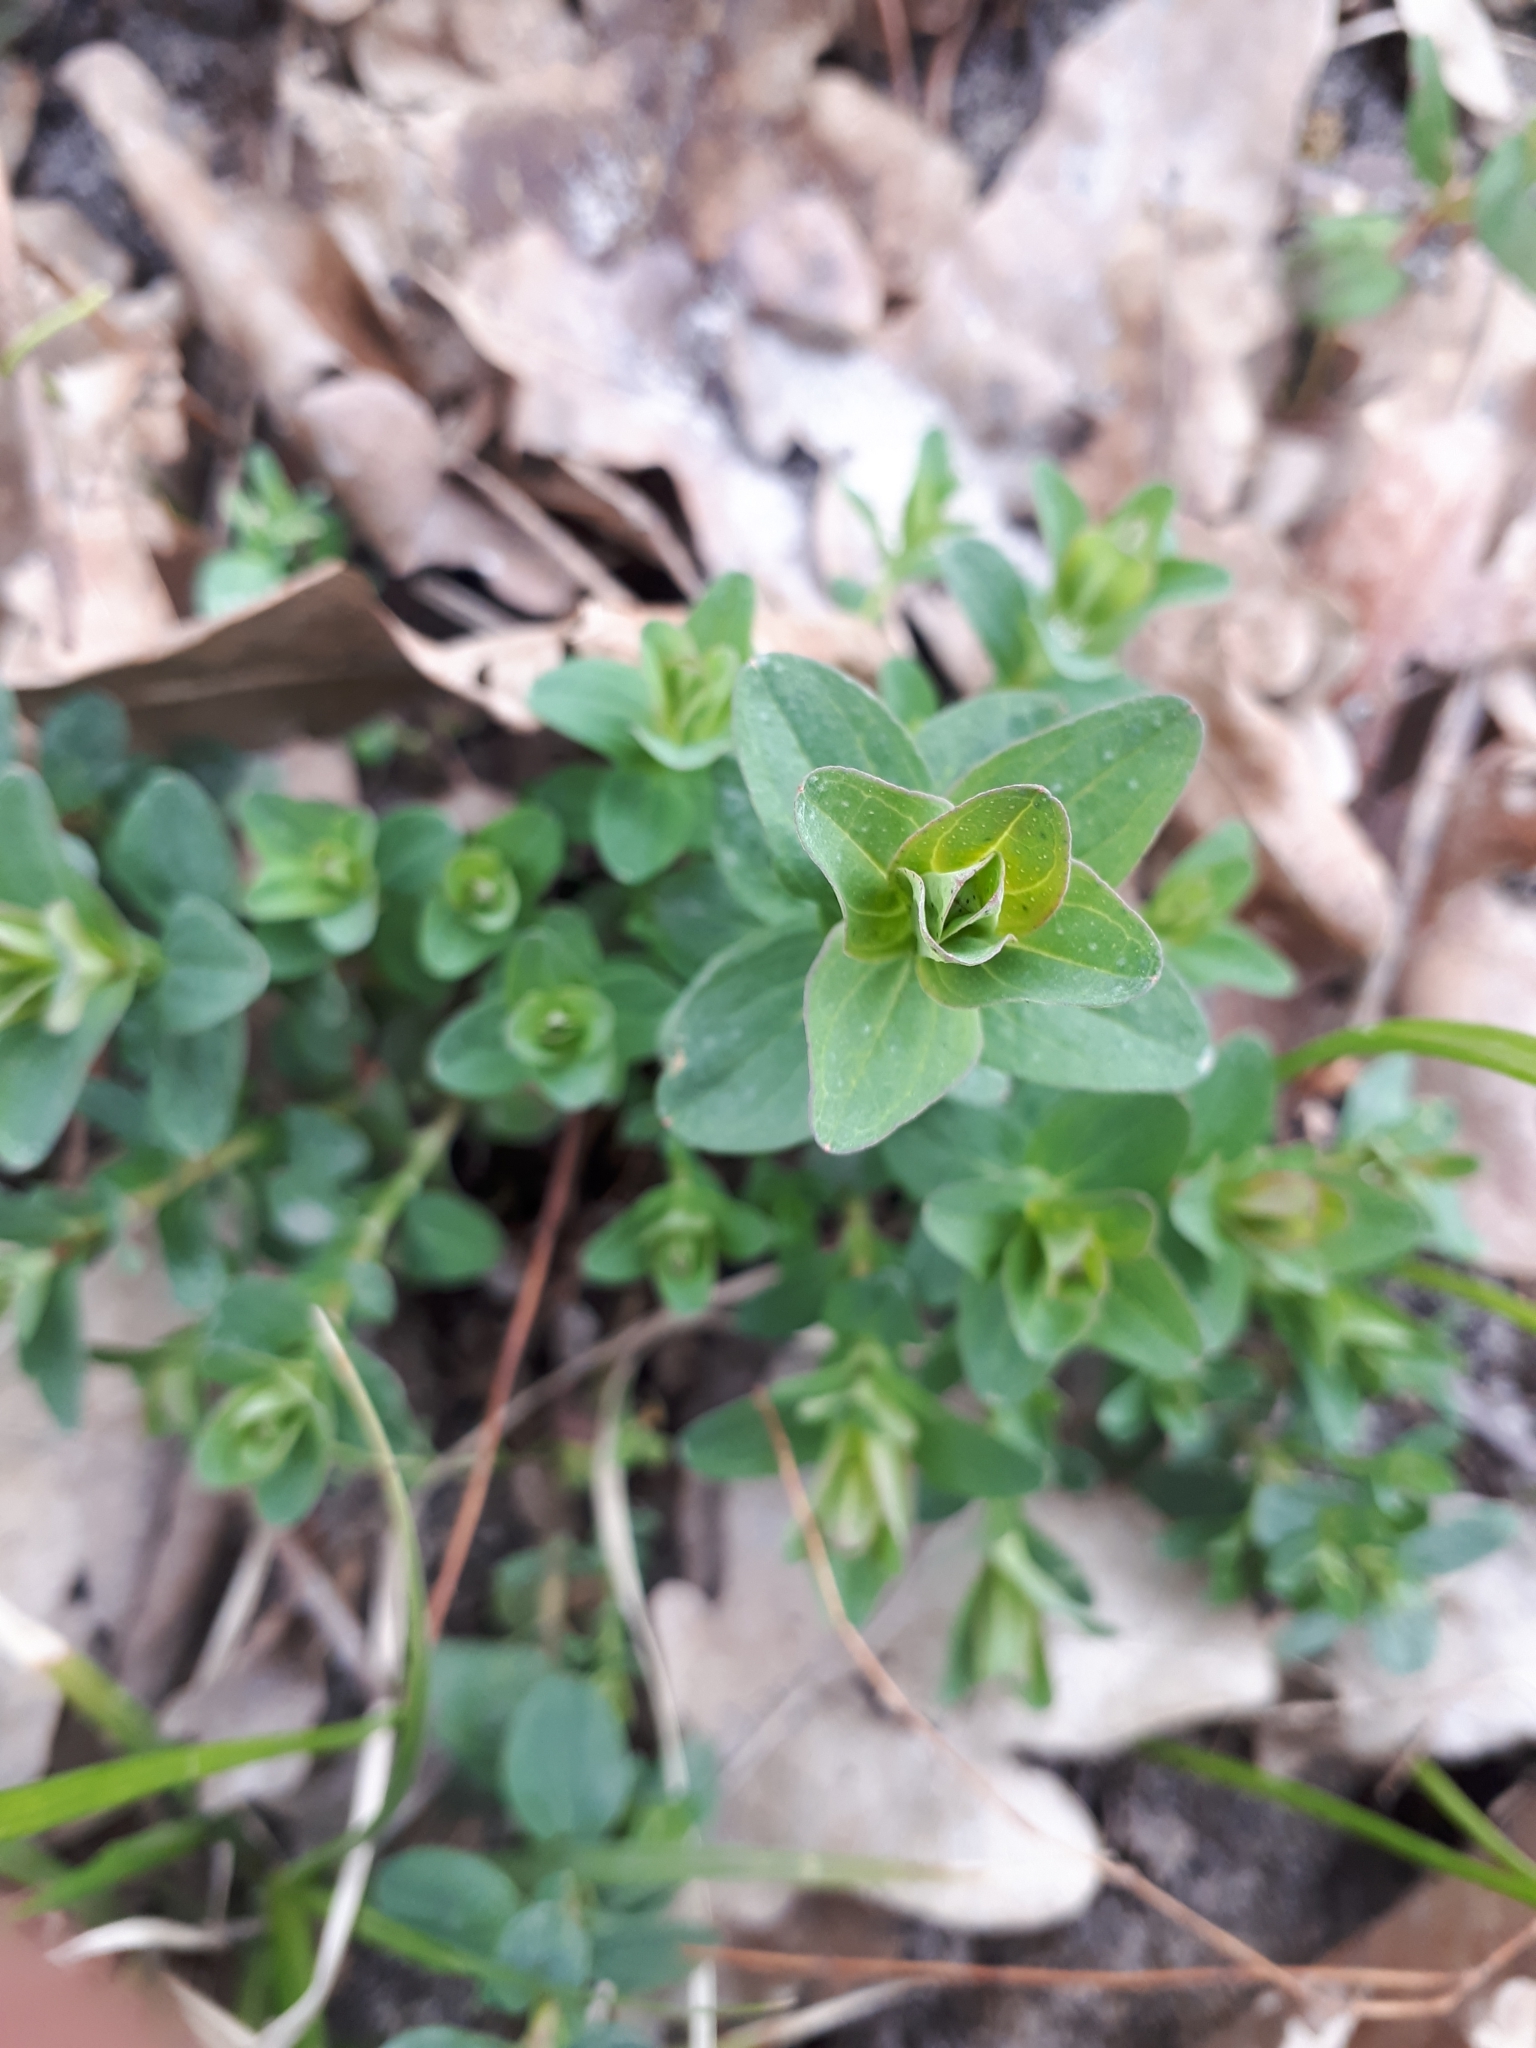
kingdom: Plantae
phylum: Tracheophyta
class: Magnoliopsida
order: Malpighiales
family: Hypericaceae
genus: Hypericum
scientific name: Hypericum perforatum
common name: Common st. johnswort
